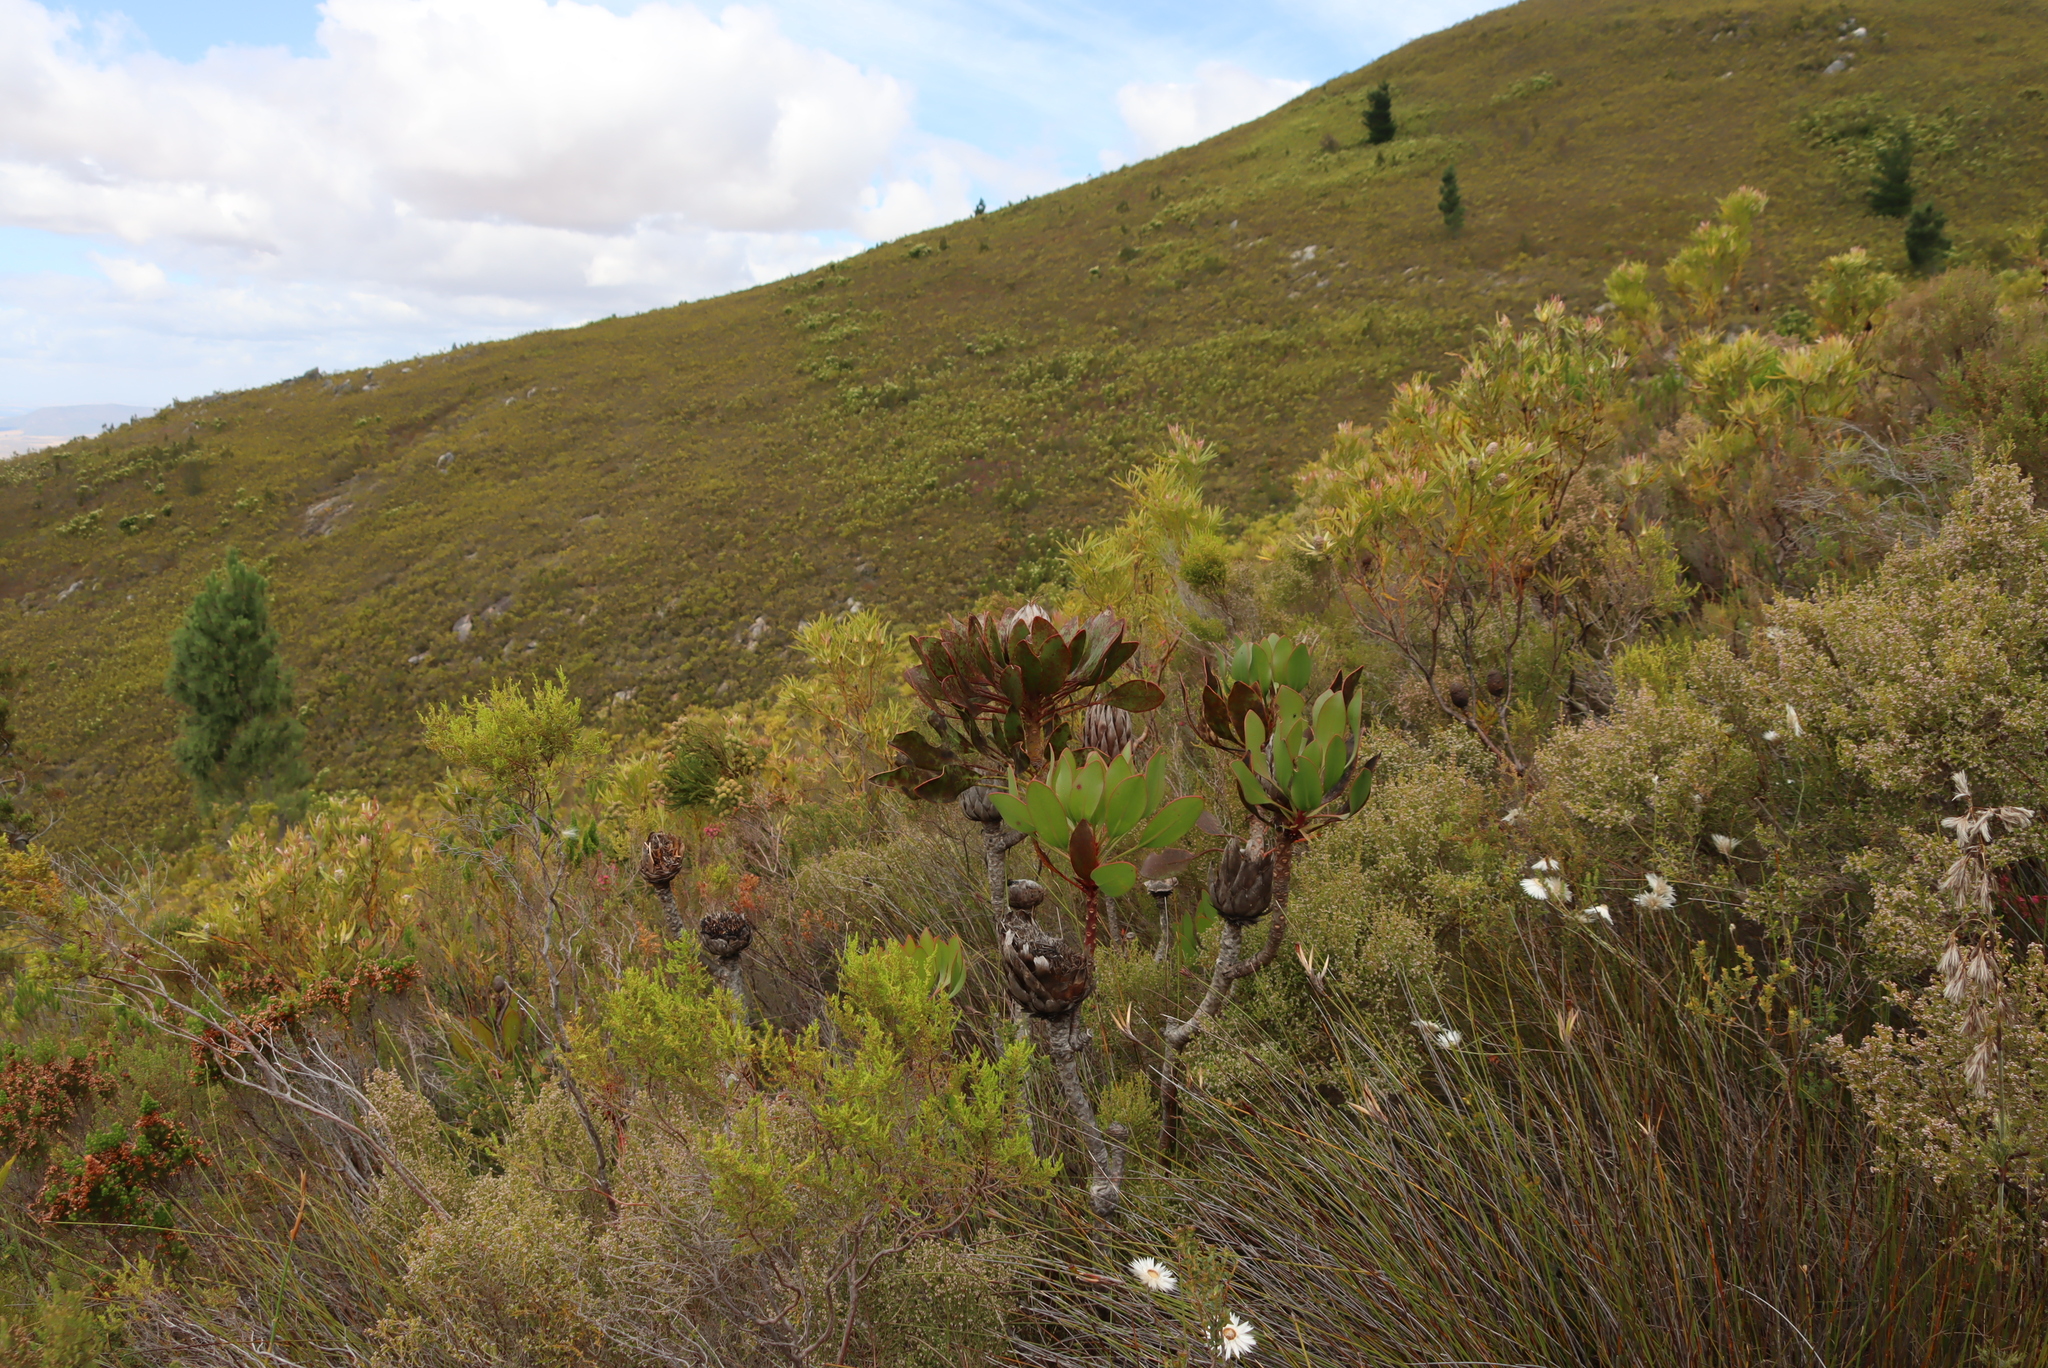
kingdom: Plantae
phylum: Tracheophyta
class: Magnoliopsida
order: Proteales
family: Proteaceae
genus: Protea
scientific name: Protea cynaroides
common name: King protea
